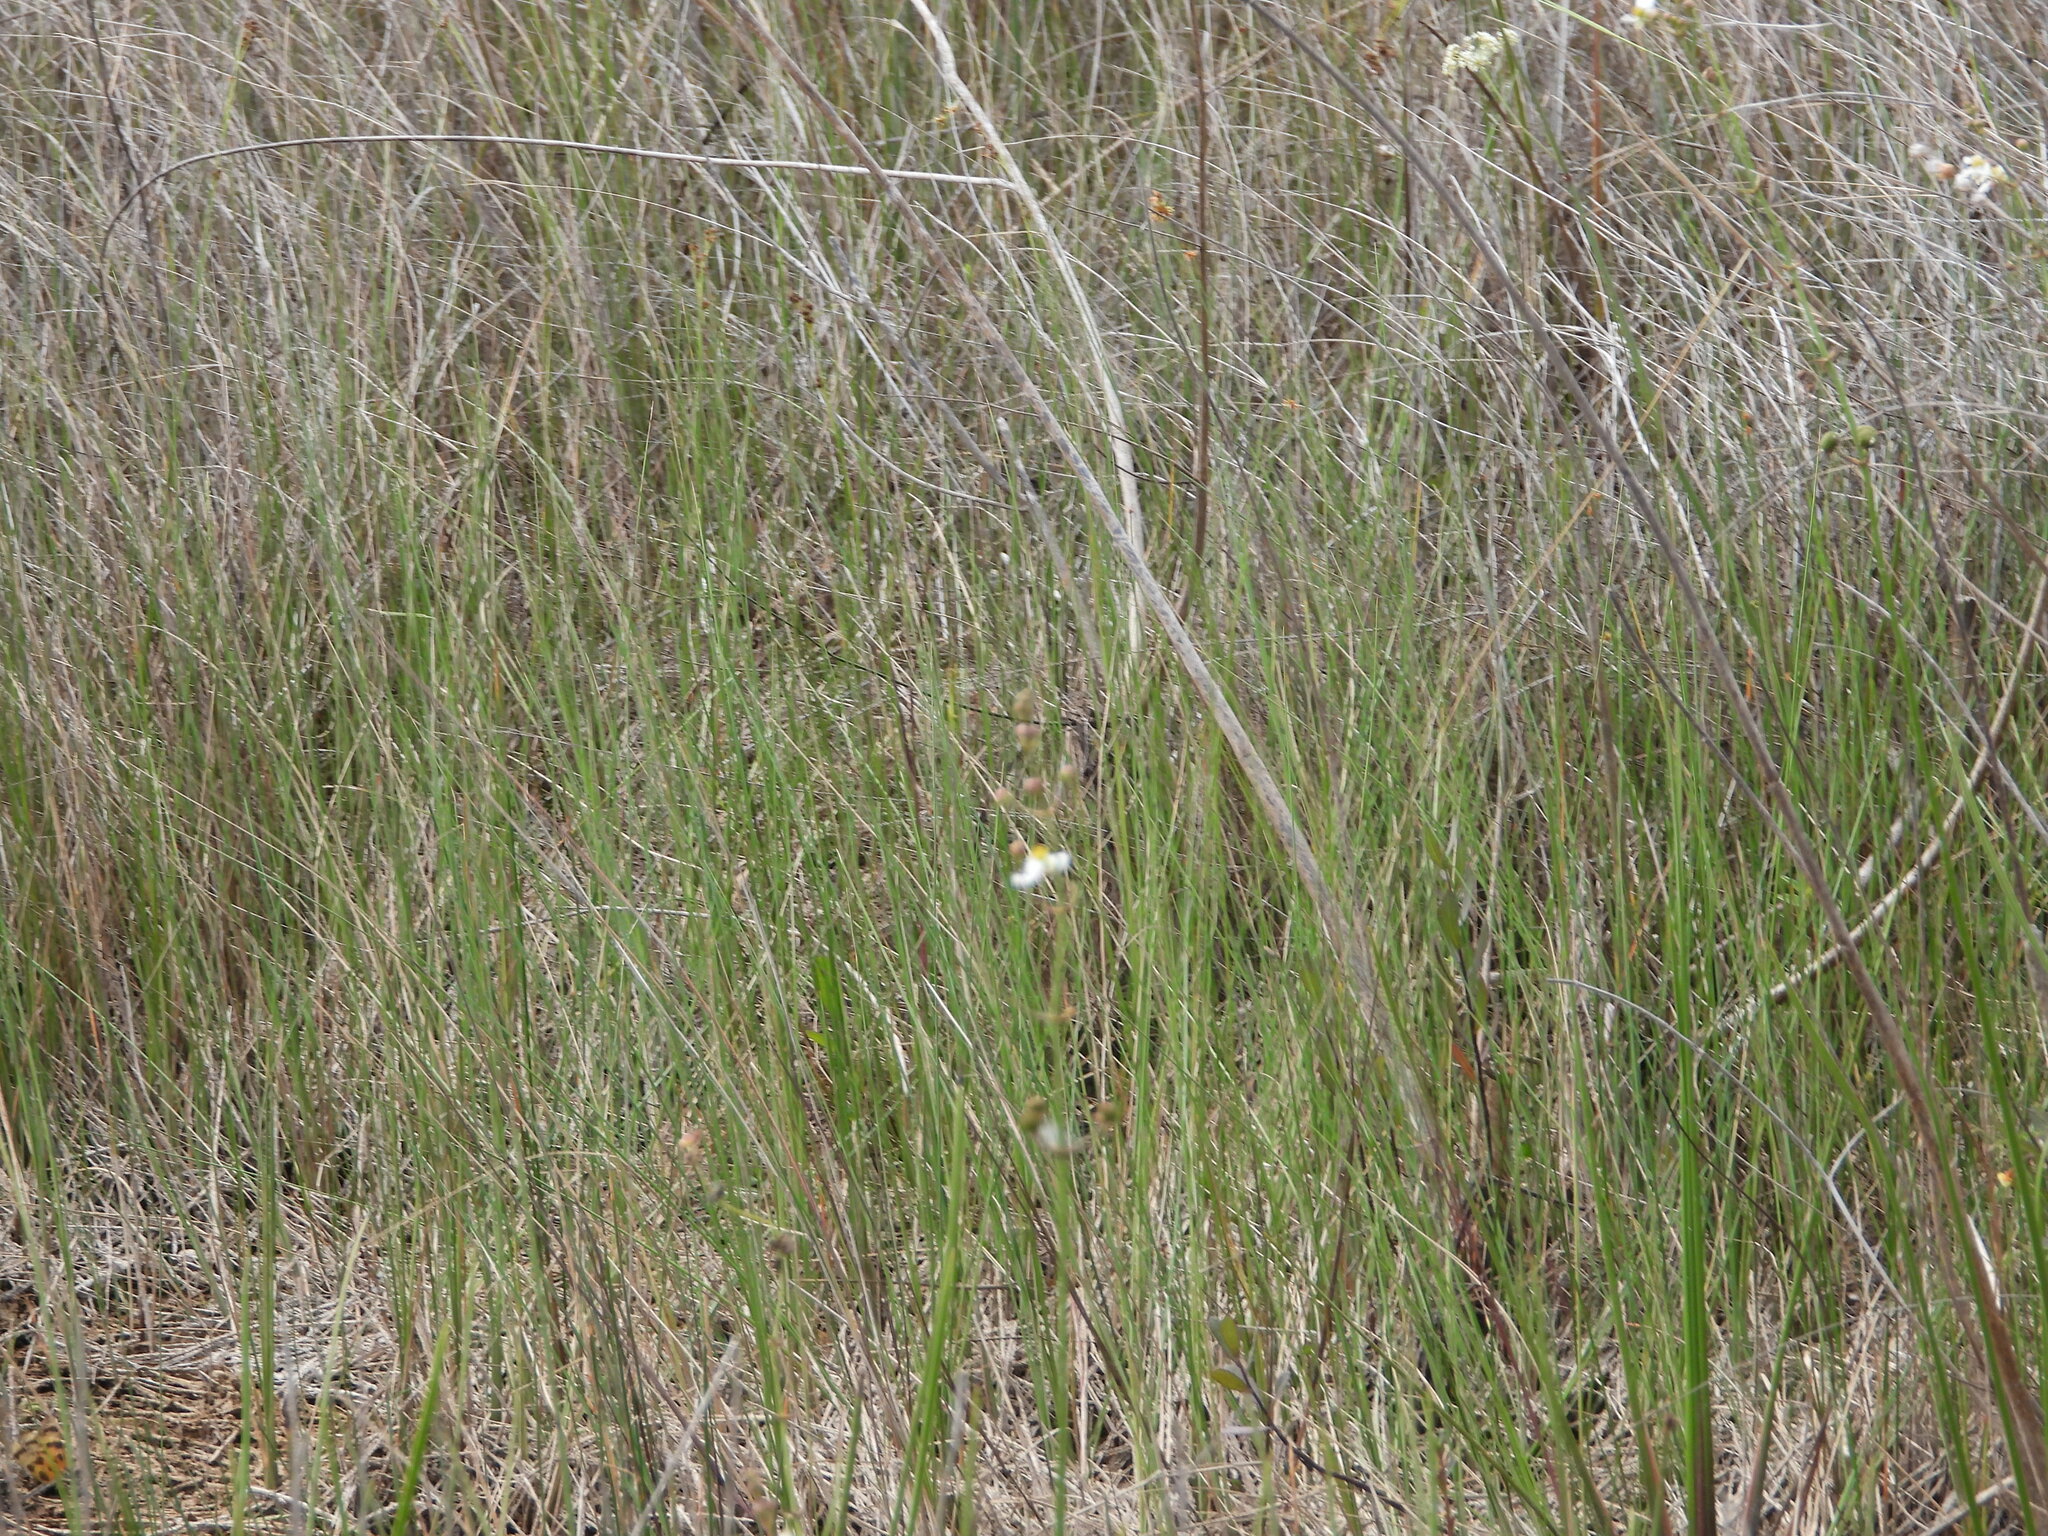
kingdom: Plantae
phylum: Tracheophyta
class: Liliopsida
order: Alismatales
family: Alismataceae
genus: Sagittaria
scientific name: Sagittaria lancifolia
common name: Lance-leaf arrowhead
